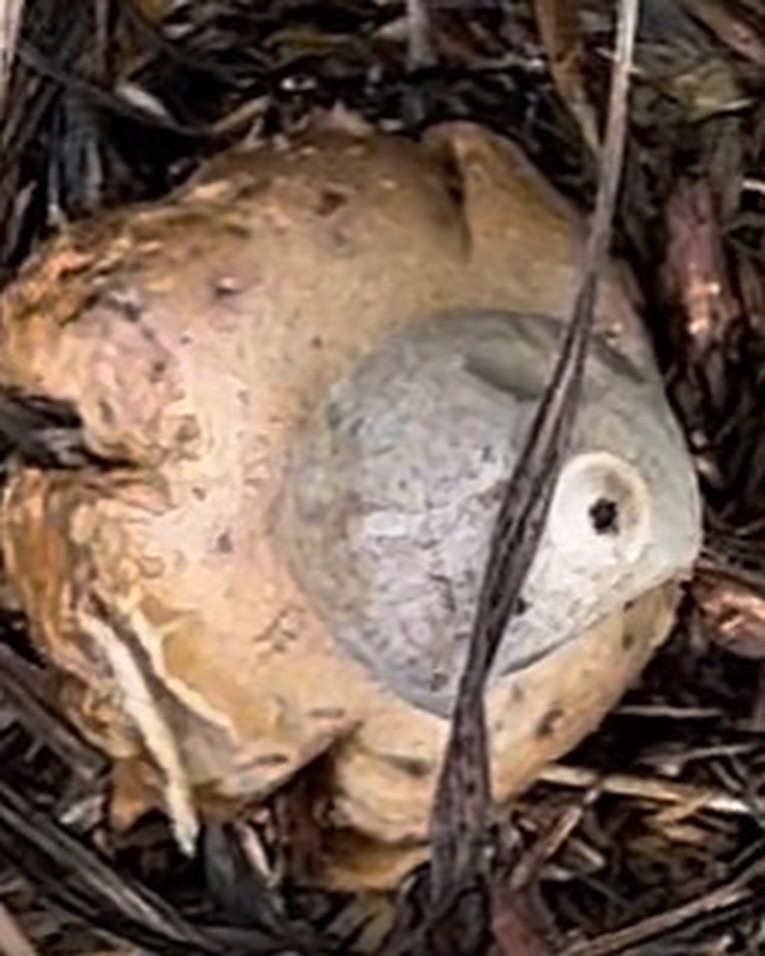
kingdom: Fungi
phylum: Basidiomycota
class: Agaricomycetes
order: Geastrales
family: Geastraceae
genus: Geastrum
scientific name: Geastrum saccatum
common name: Rounded earthstar
